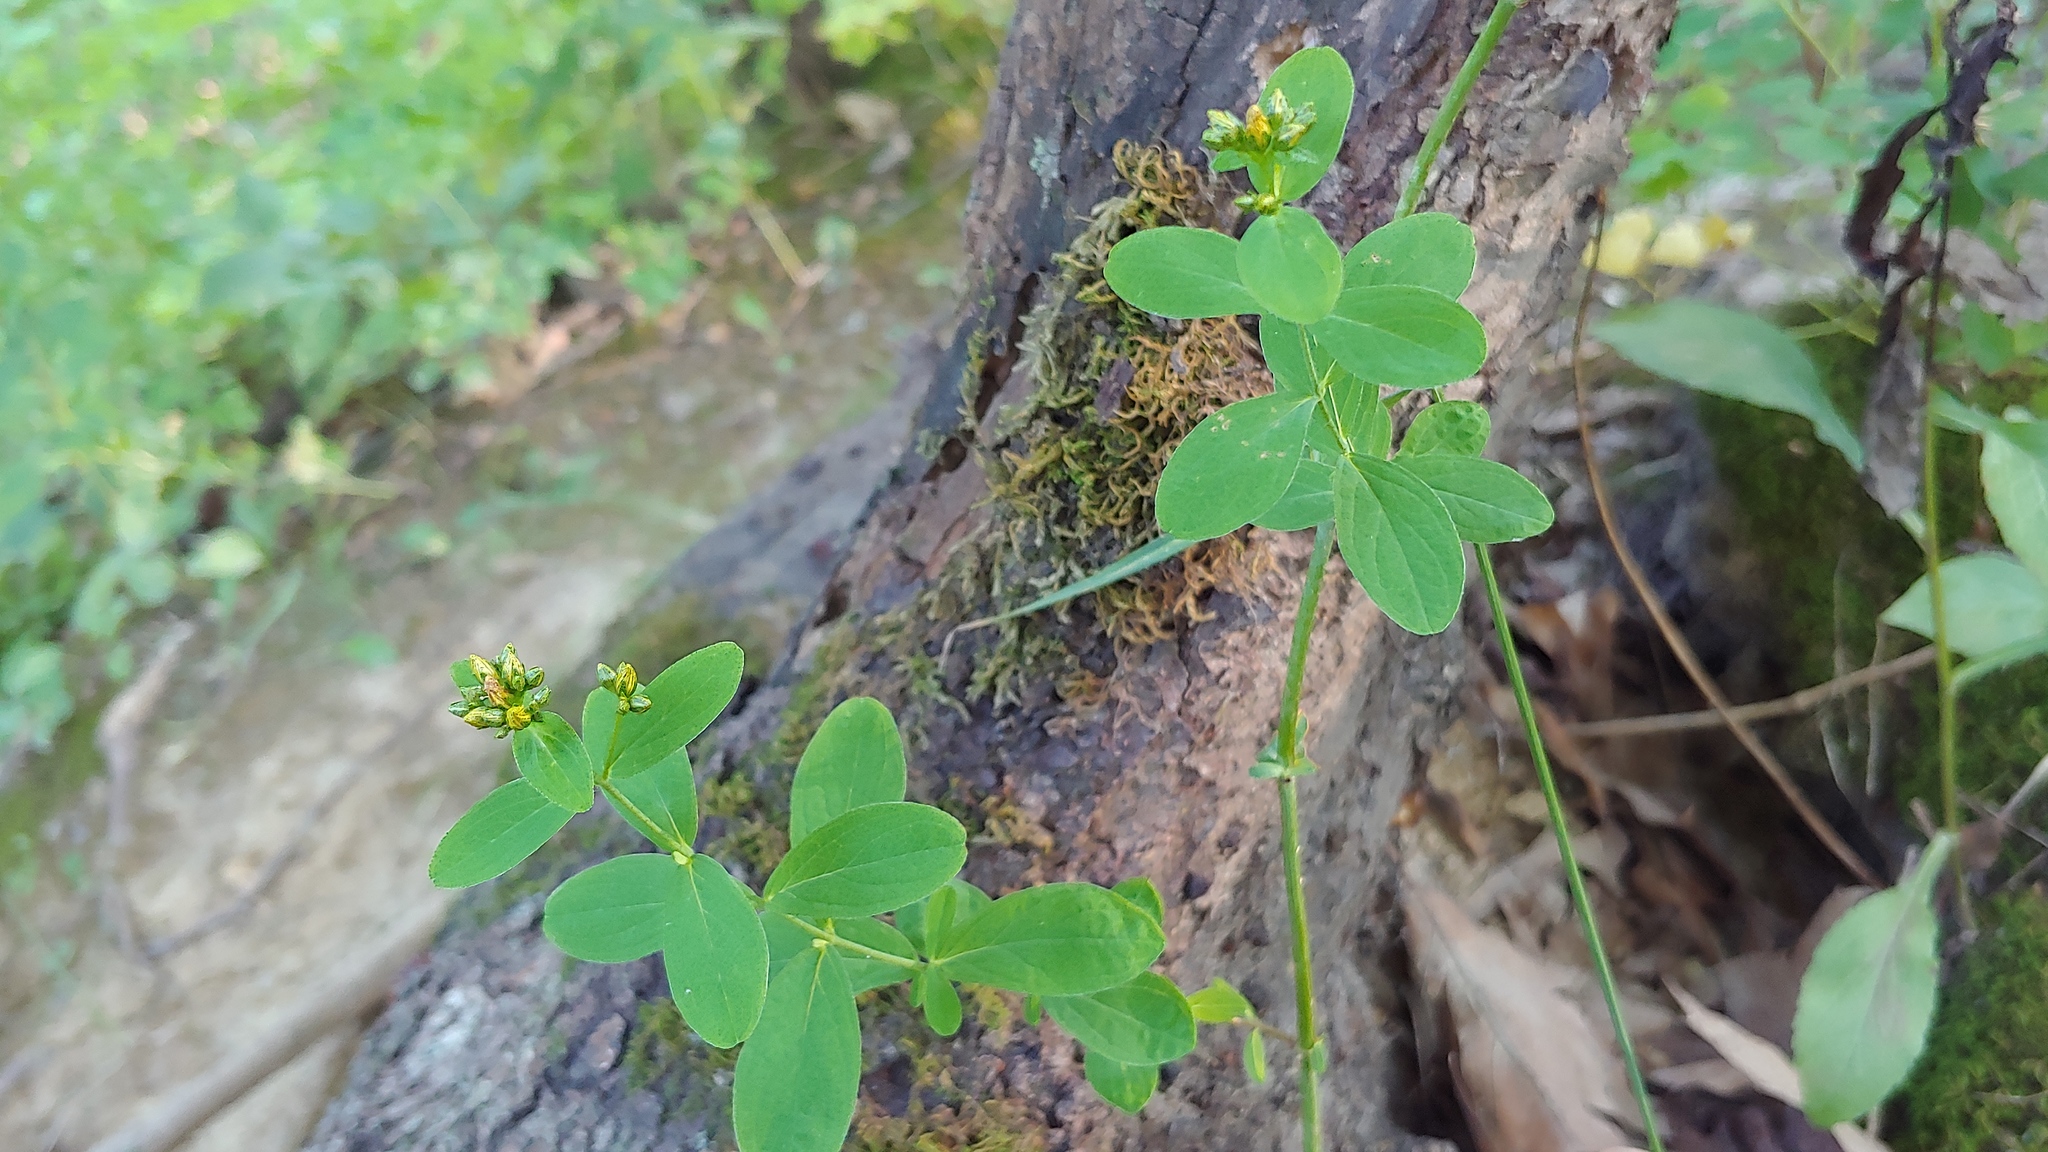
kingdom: Plantae
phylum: Tracheophyta
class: Magnoliopsida
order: Malpighiales
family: Hypericaceae
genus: Hypericum
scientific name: Hypericum punctatum
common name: Spotted st. john's-wort
